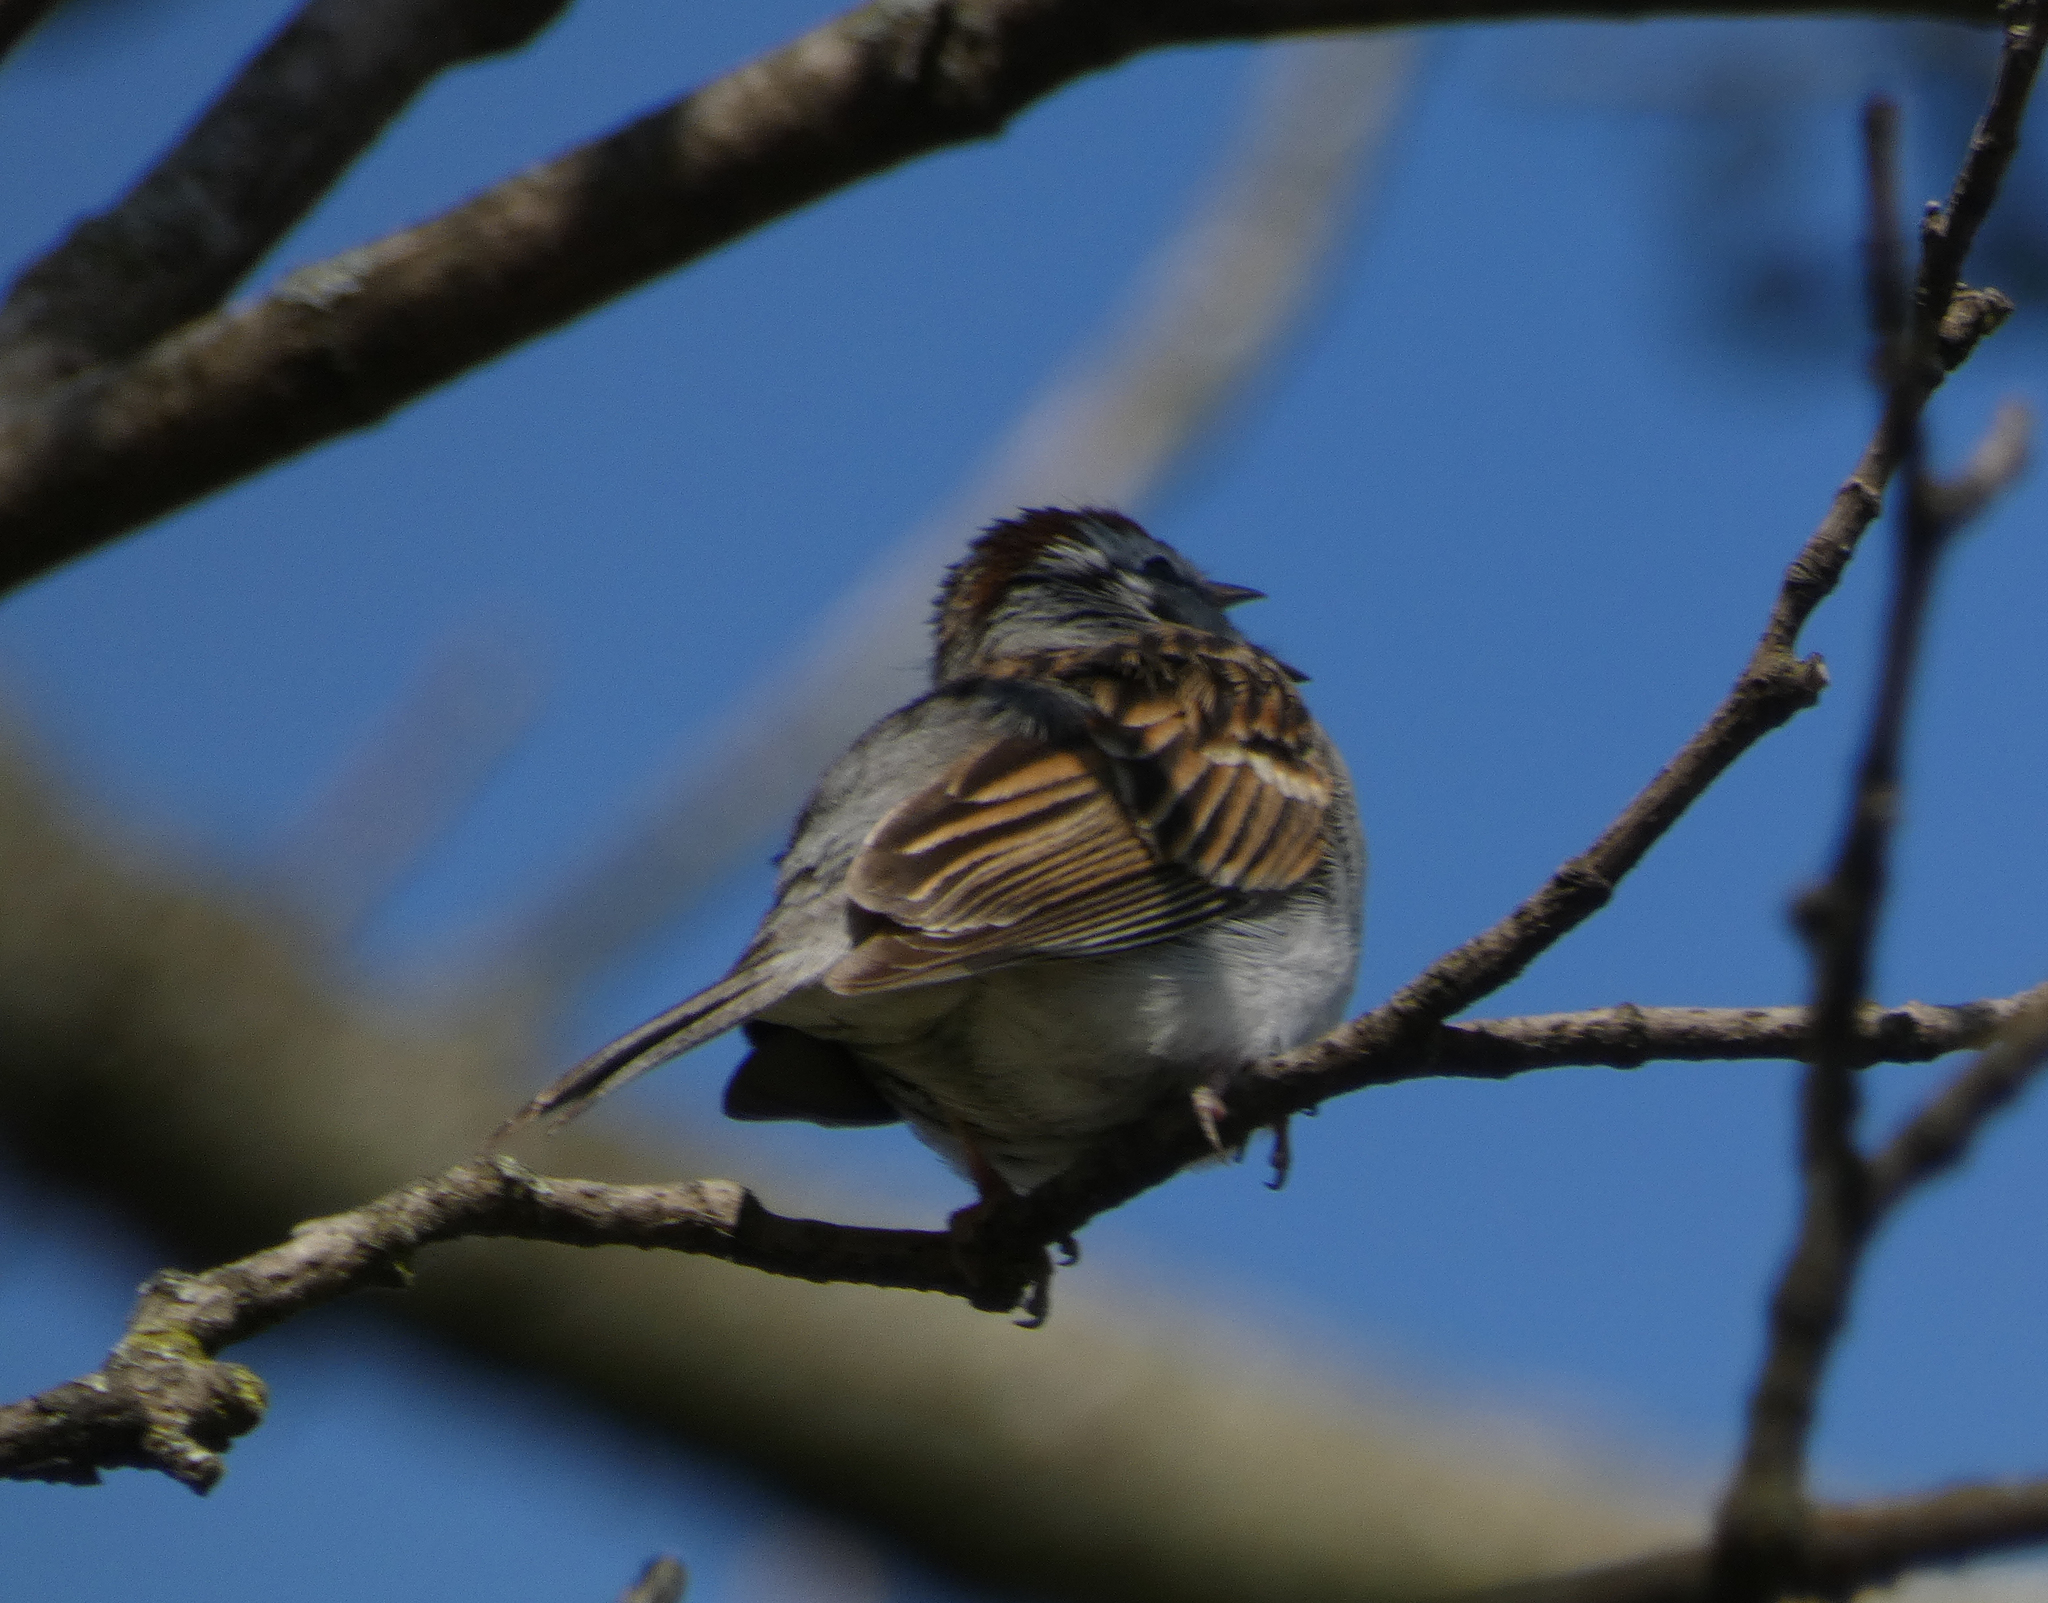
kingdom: Animalia
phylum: Chordata
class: Aves
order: Passeriformes
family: Passerellidae
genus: Spizella
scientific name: Spizella passerina
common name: Chipping sparrow
